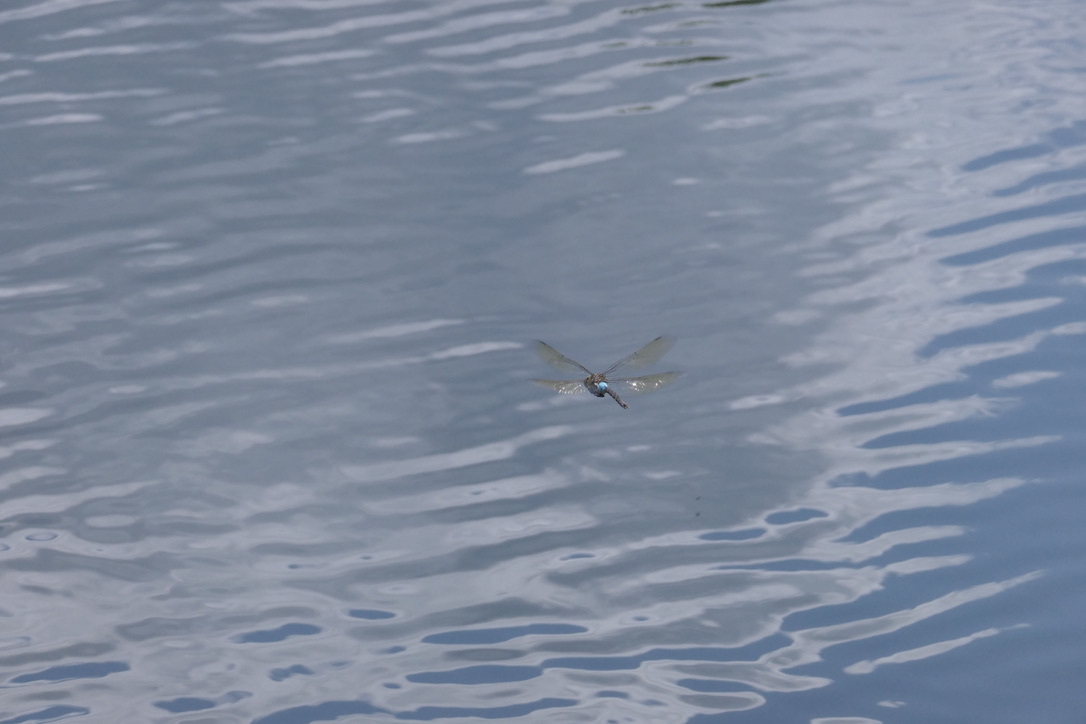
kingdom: Animalia
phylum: Arthropoda
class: Insecta
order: Odonata
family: Aeshnidae
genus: Anax
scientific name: Anax parthenope
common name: Lesser emperor
